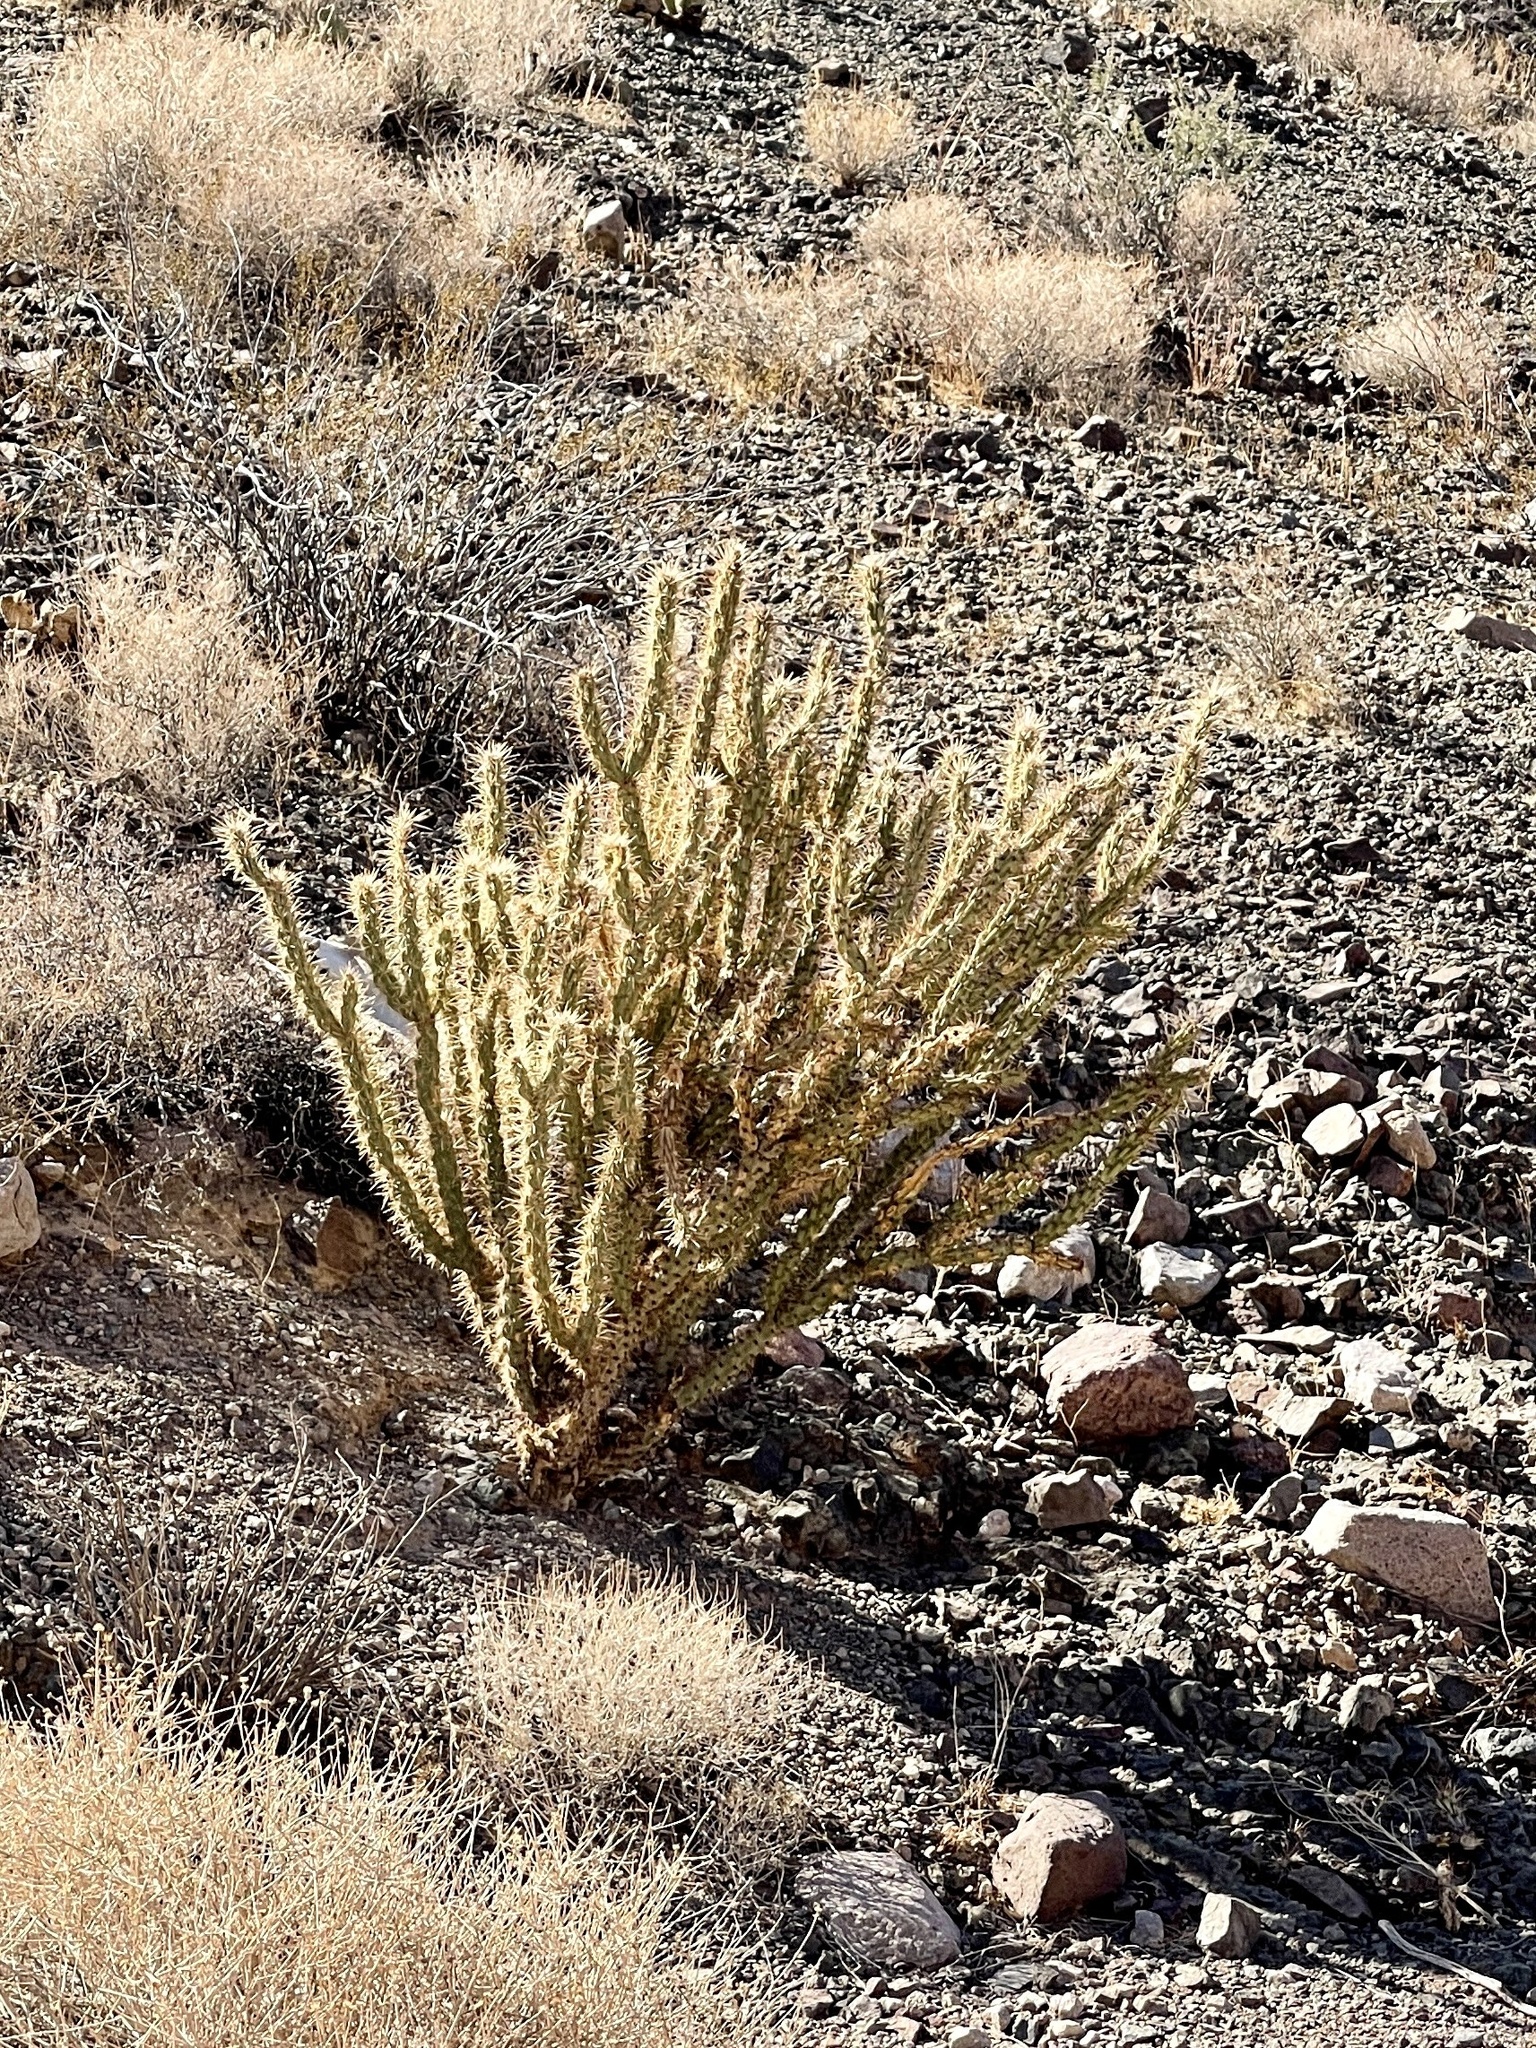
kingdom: Plantae
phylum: Tracheophyta
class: Magnoliopsida
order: Caryophyllales
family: Cactaceae
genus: Cylindropuntia
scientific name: Cylindropuntia acanthocarpa
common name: Buckhorn cholla
